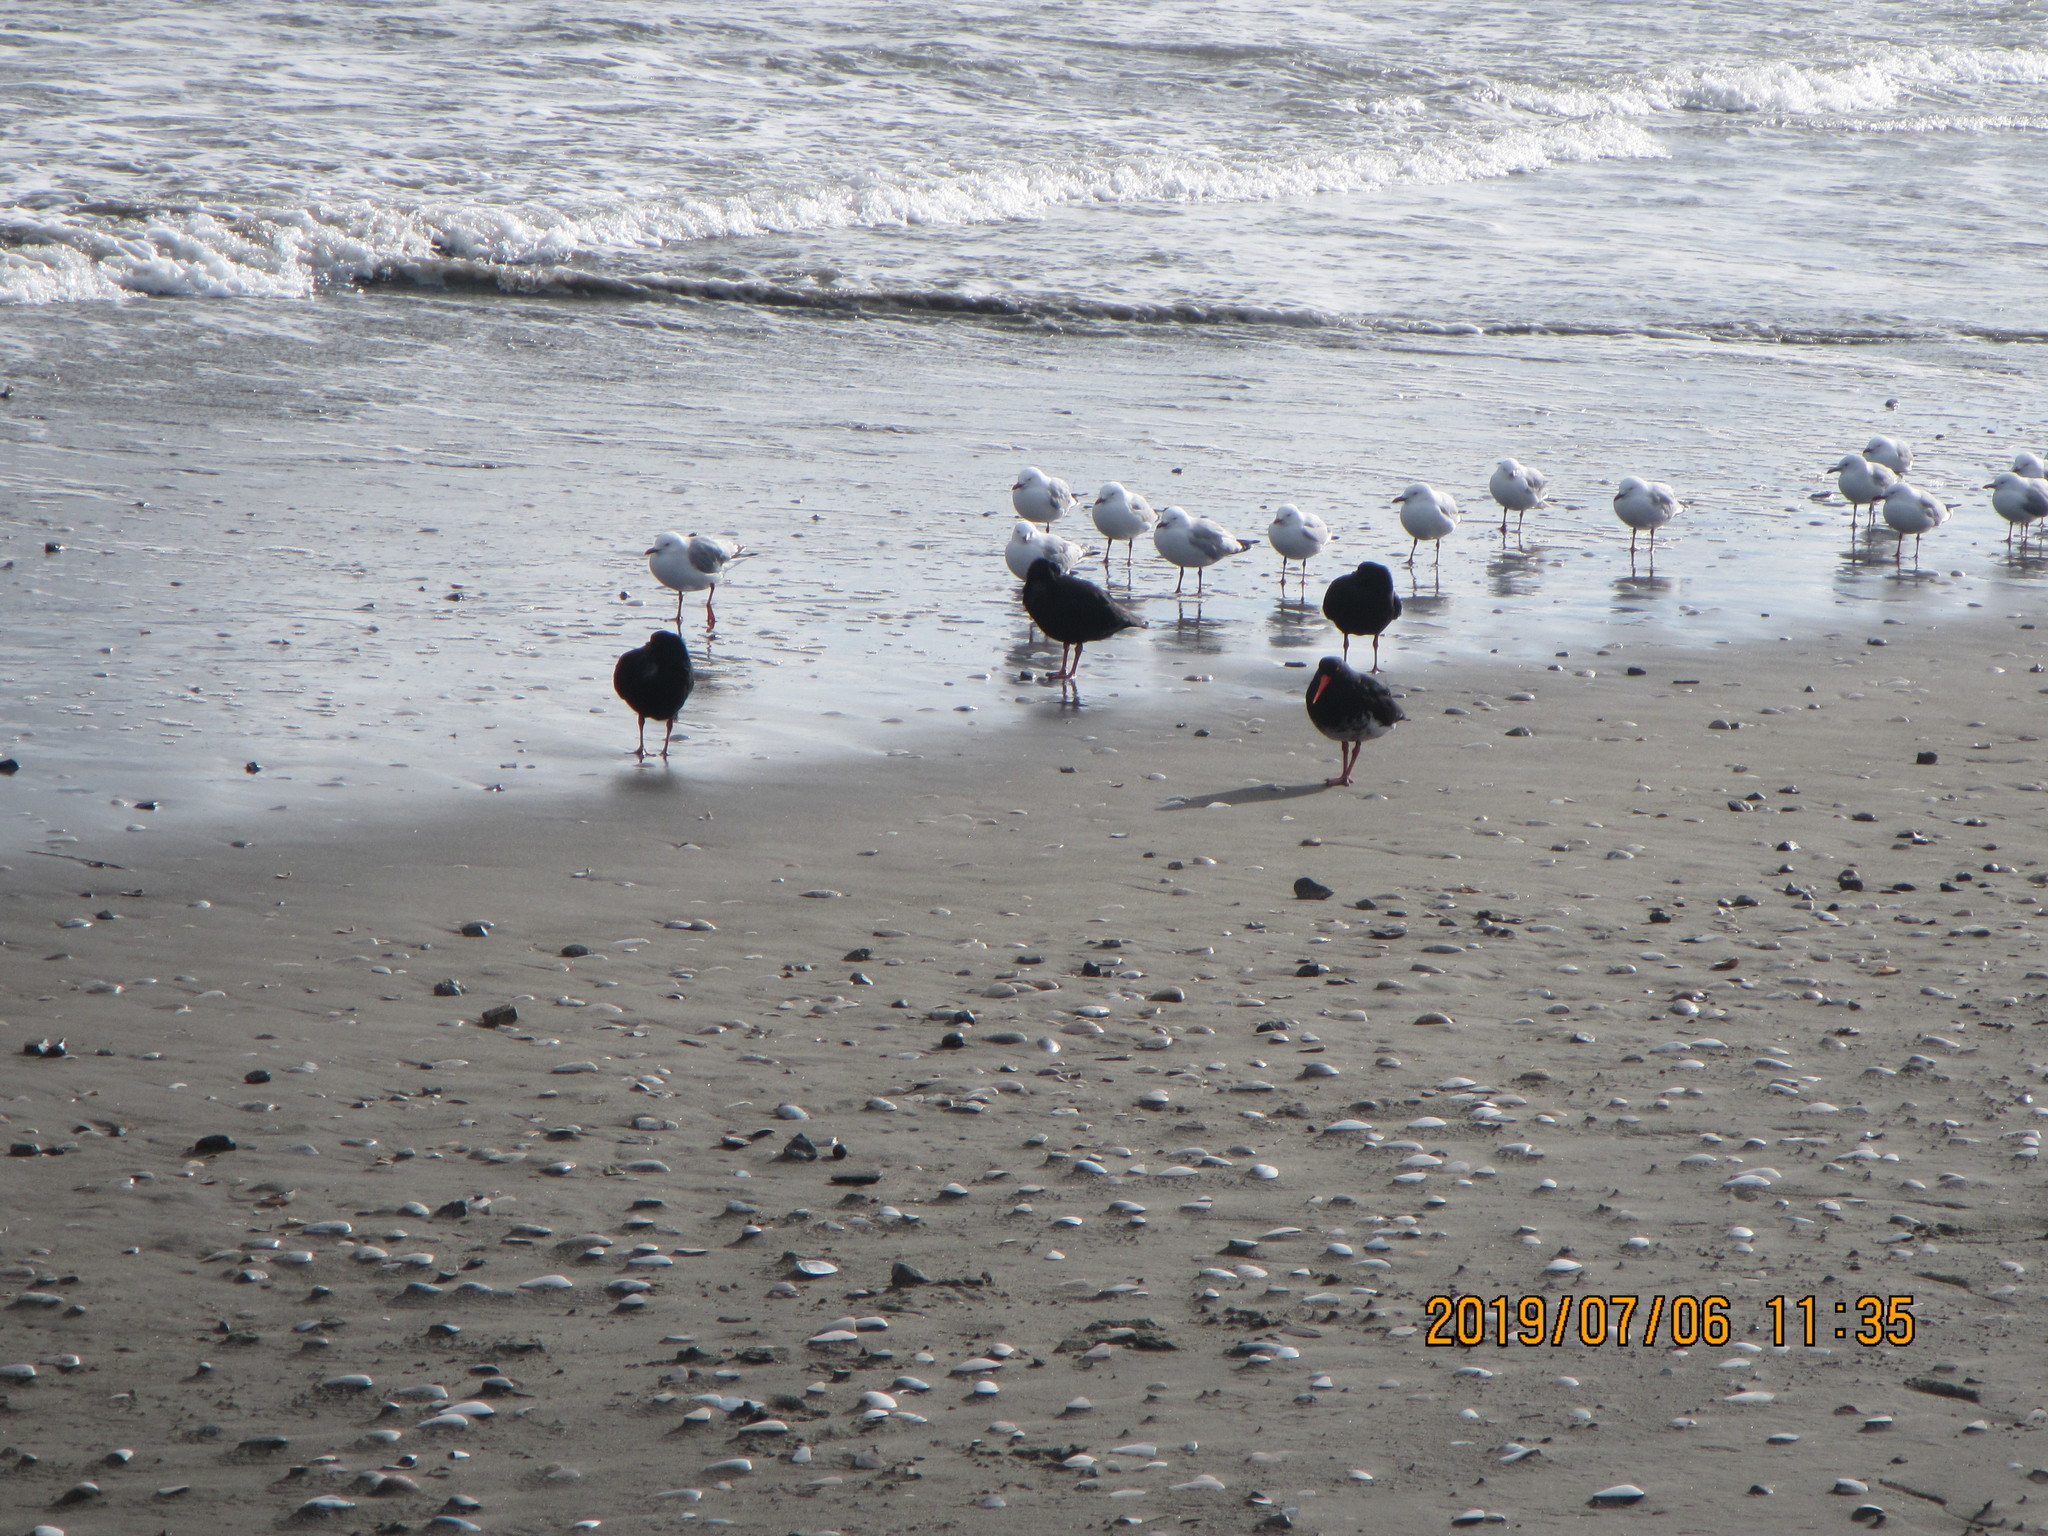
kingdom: Animalia
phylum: Chordata
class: Aves
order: Charadriiformes
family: Haematopodidae
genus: Haematopus
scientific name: Haematopus unicolor
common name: Variable oystercatcher
